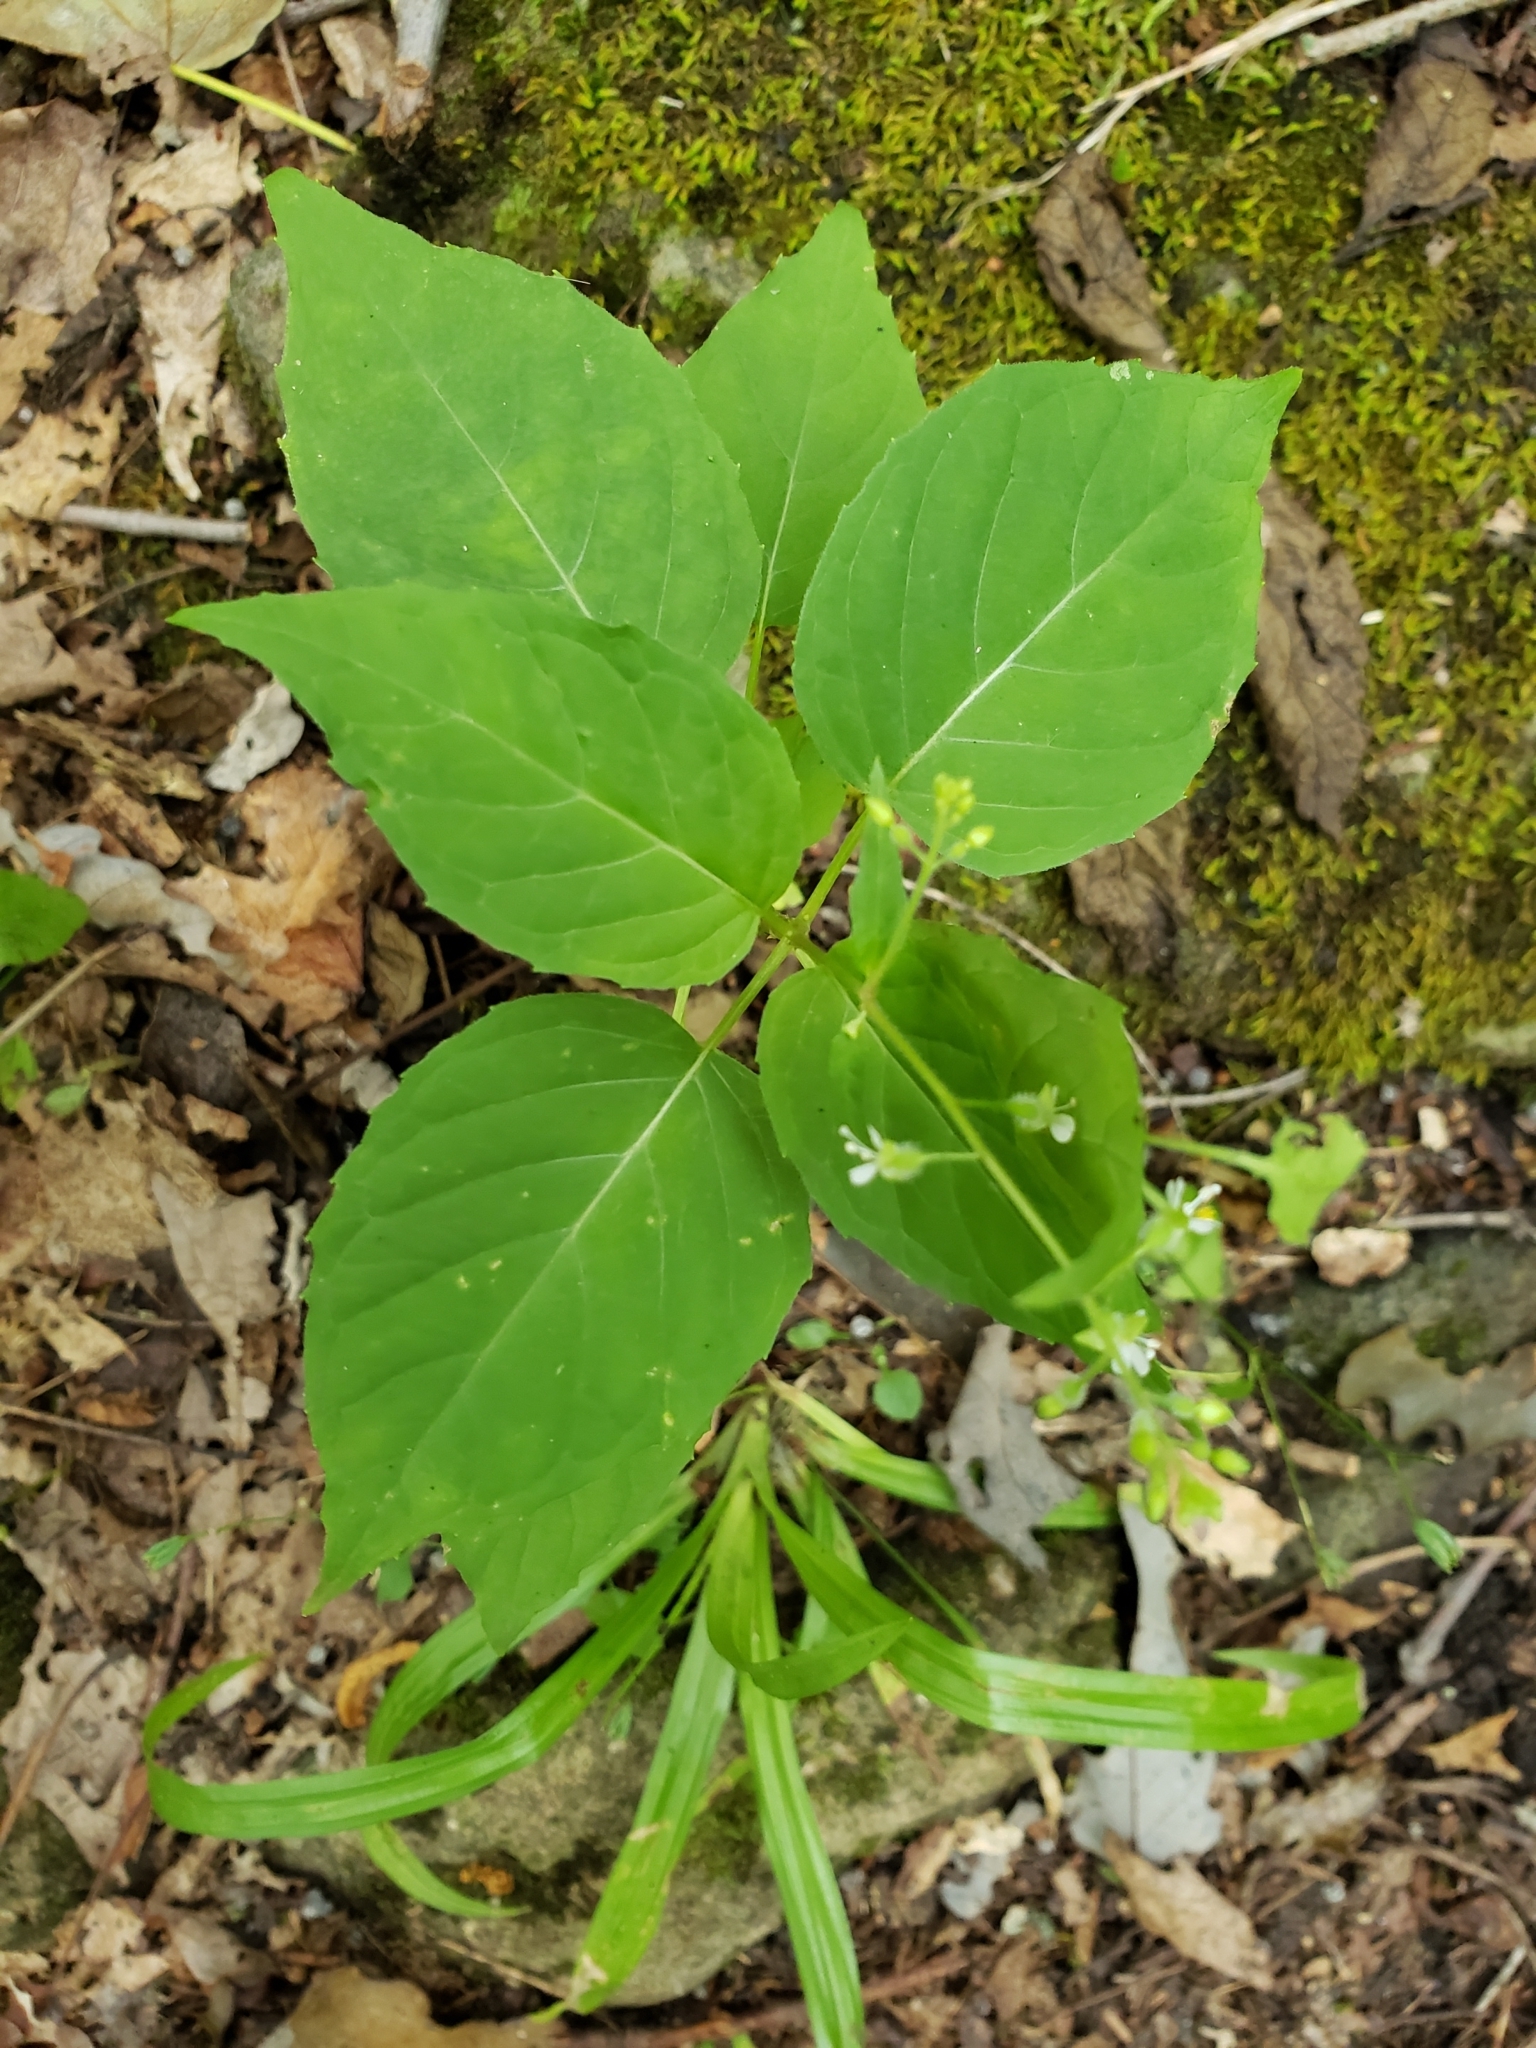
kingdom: Plantae
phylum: Tracheophyta
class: Magnoliopsida
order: Myrtales
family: Onagraceae
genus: Circaea
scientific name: Circaea canadensis
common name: Broad-leaved enchanter's nightshade
